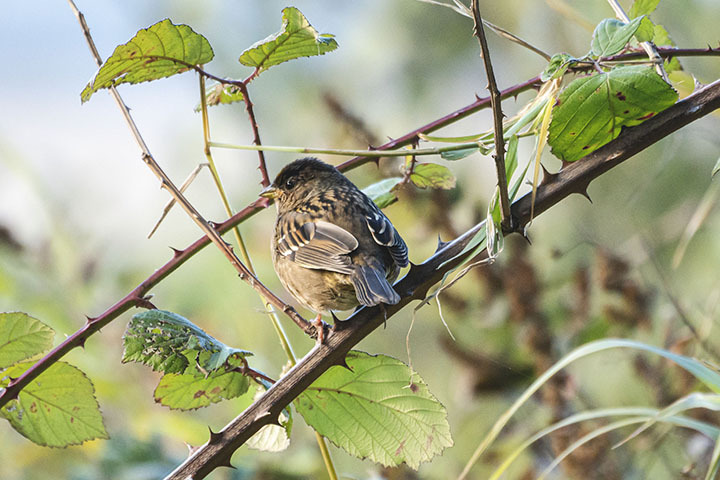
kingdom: Animalia
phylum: Chordata
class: Aves
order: Passeriformes
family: Passerellidae
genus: Zonotrichia
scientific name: Zonotrichia atricapilla
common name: Golden-crowned sparrow
